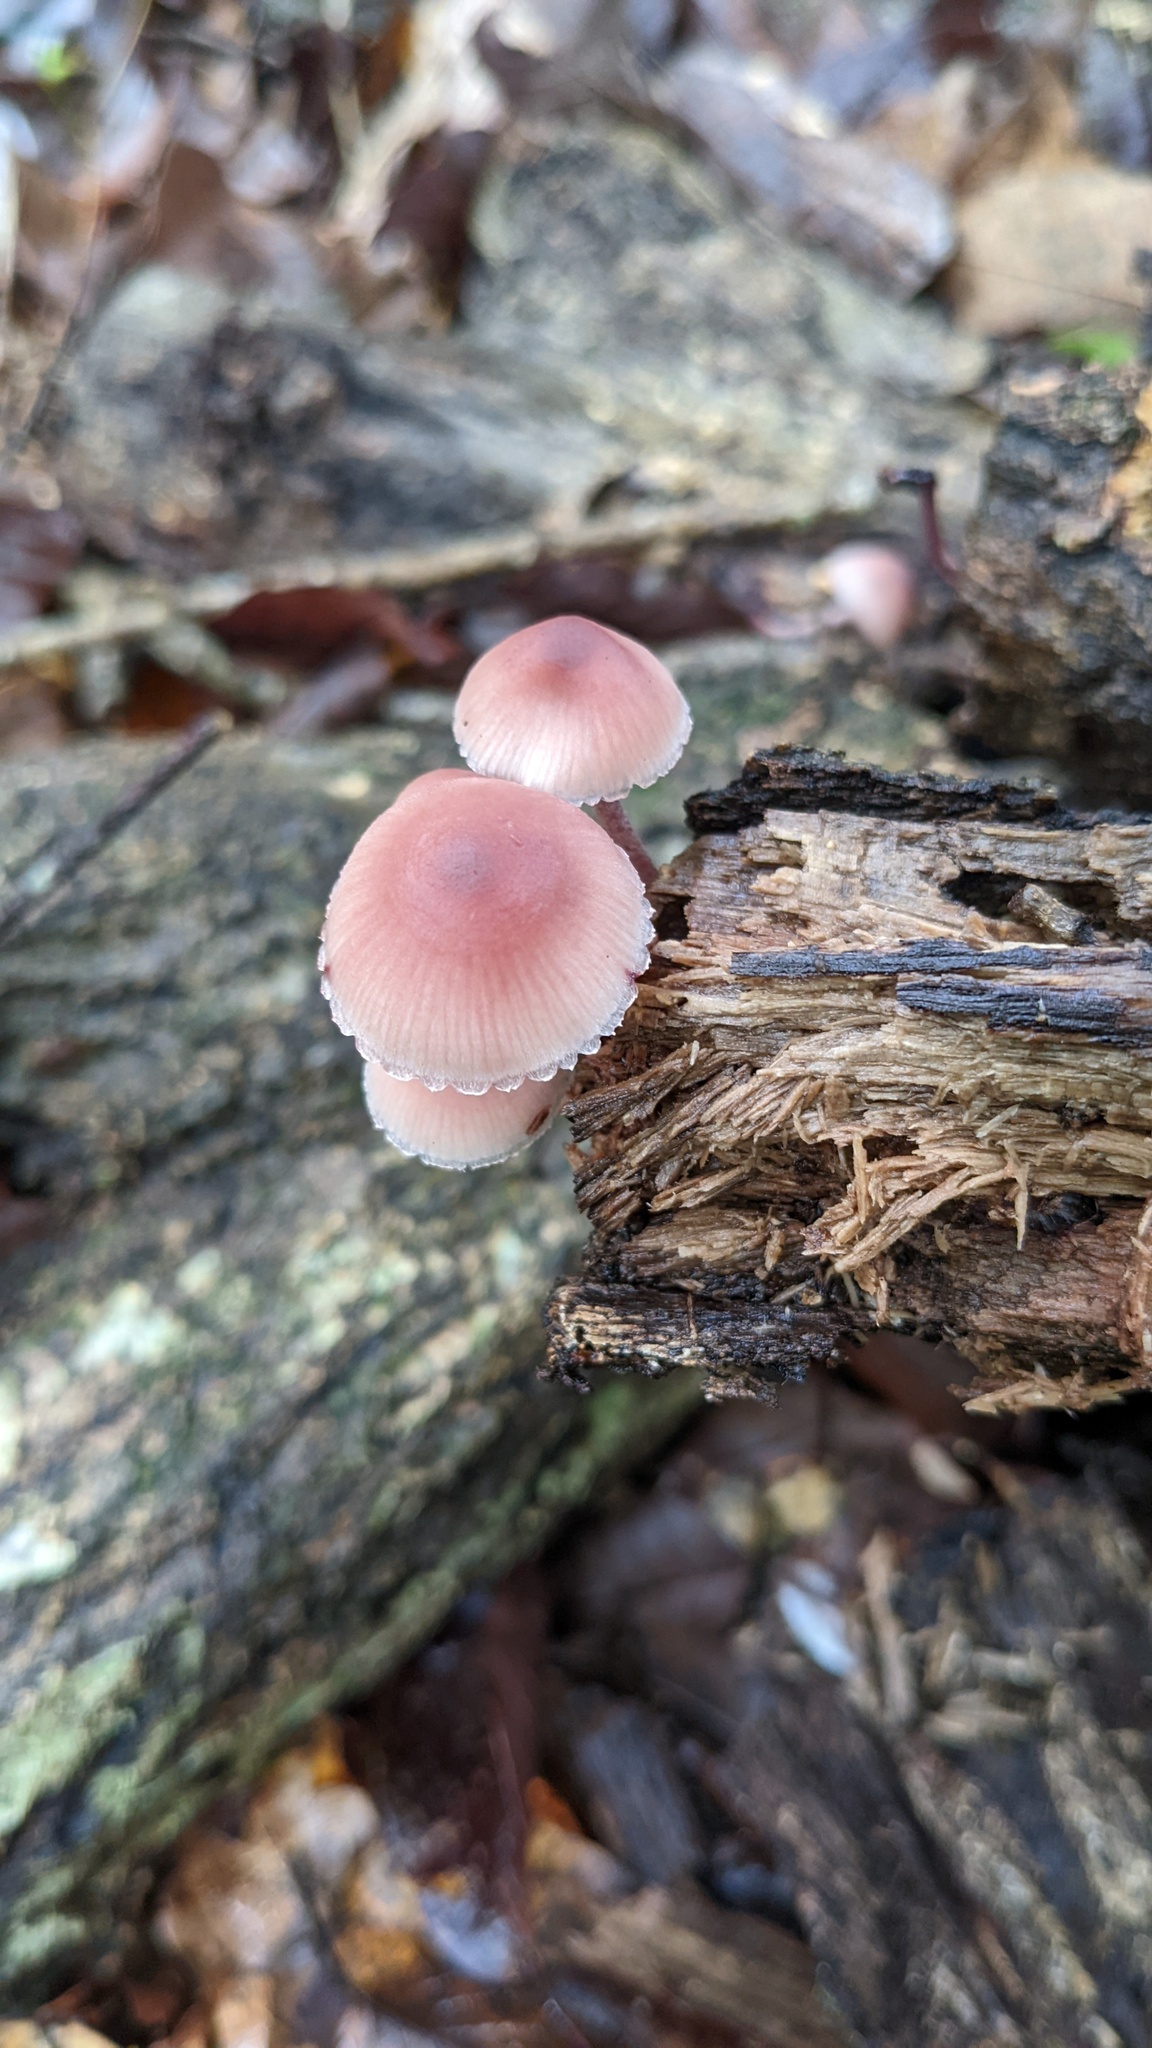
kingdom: Fungi
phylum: Basidiomycota
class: Agaricomycetes
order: Agaricales
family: Mycenaceae
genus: Mycena
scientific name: Mycena haematopus
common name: Burgundydrop bonnet
